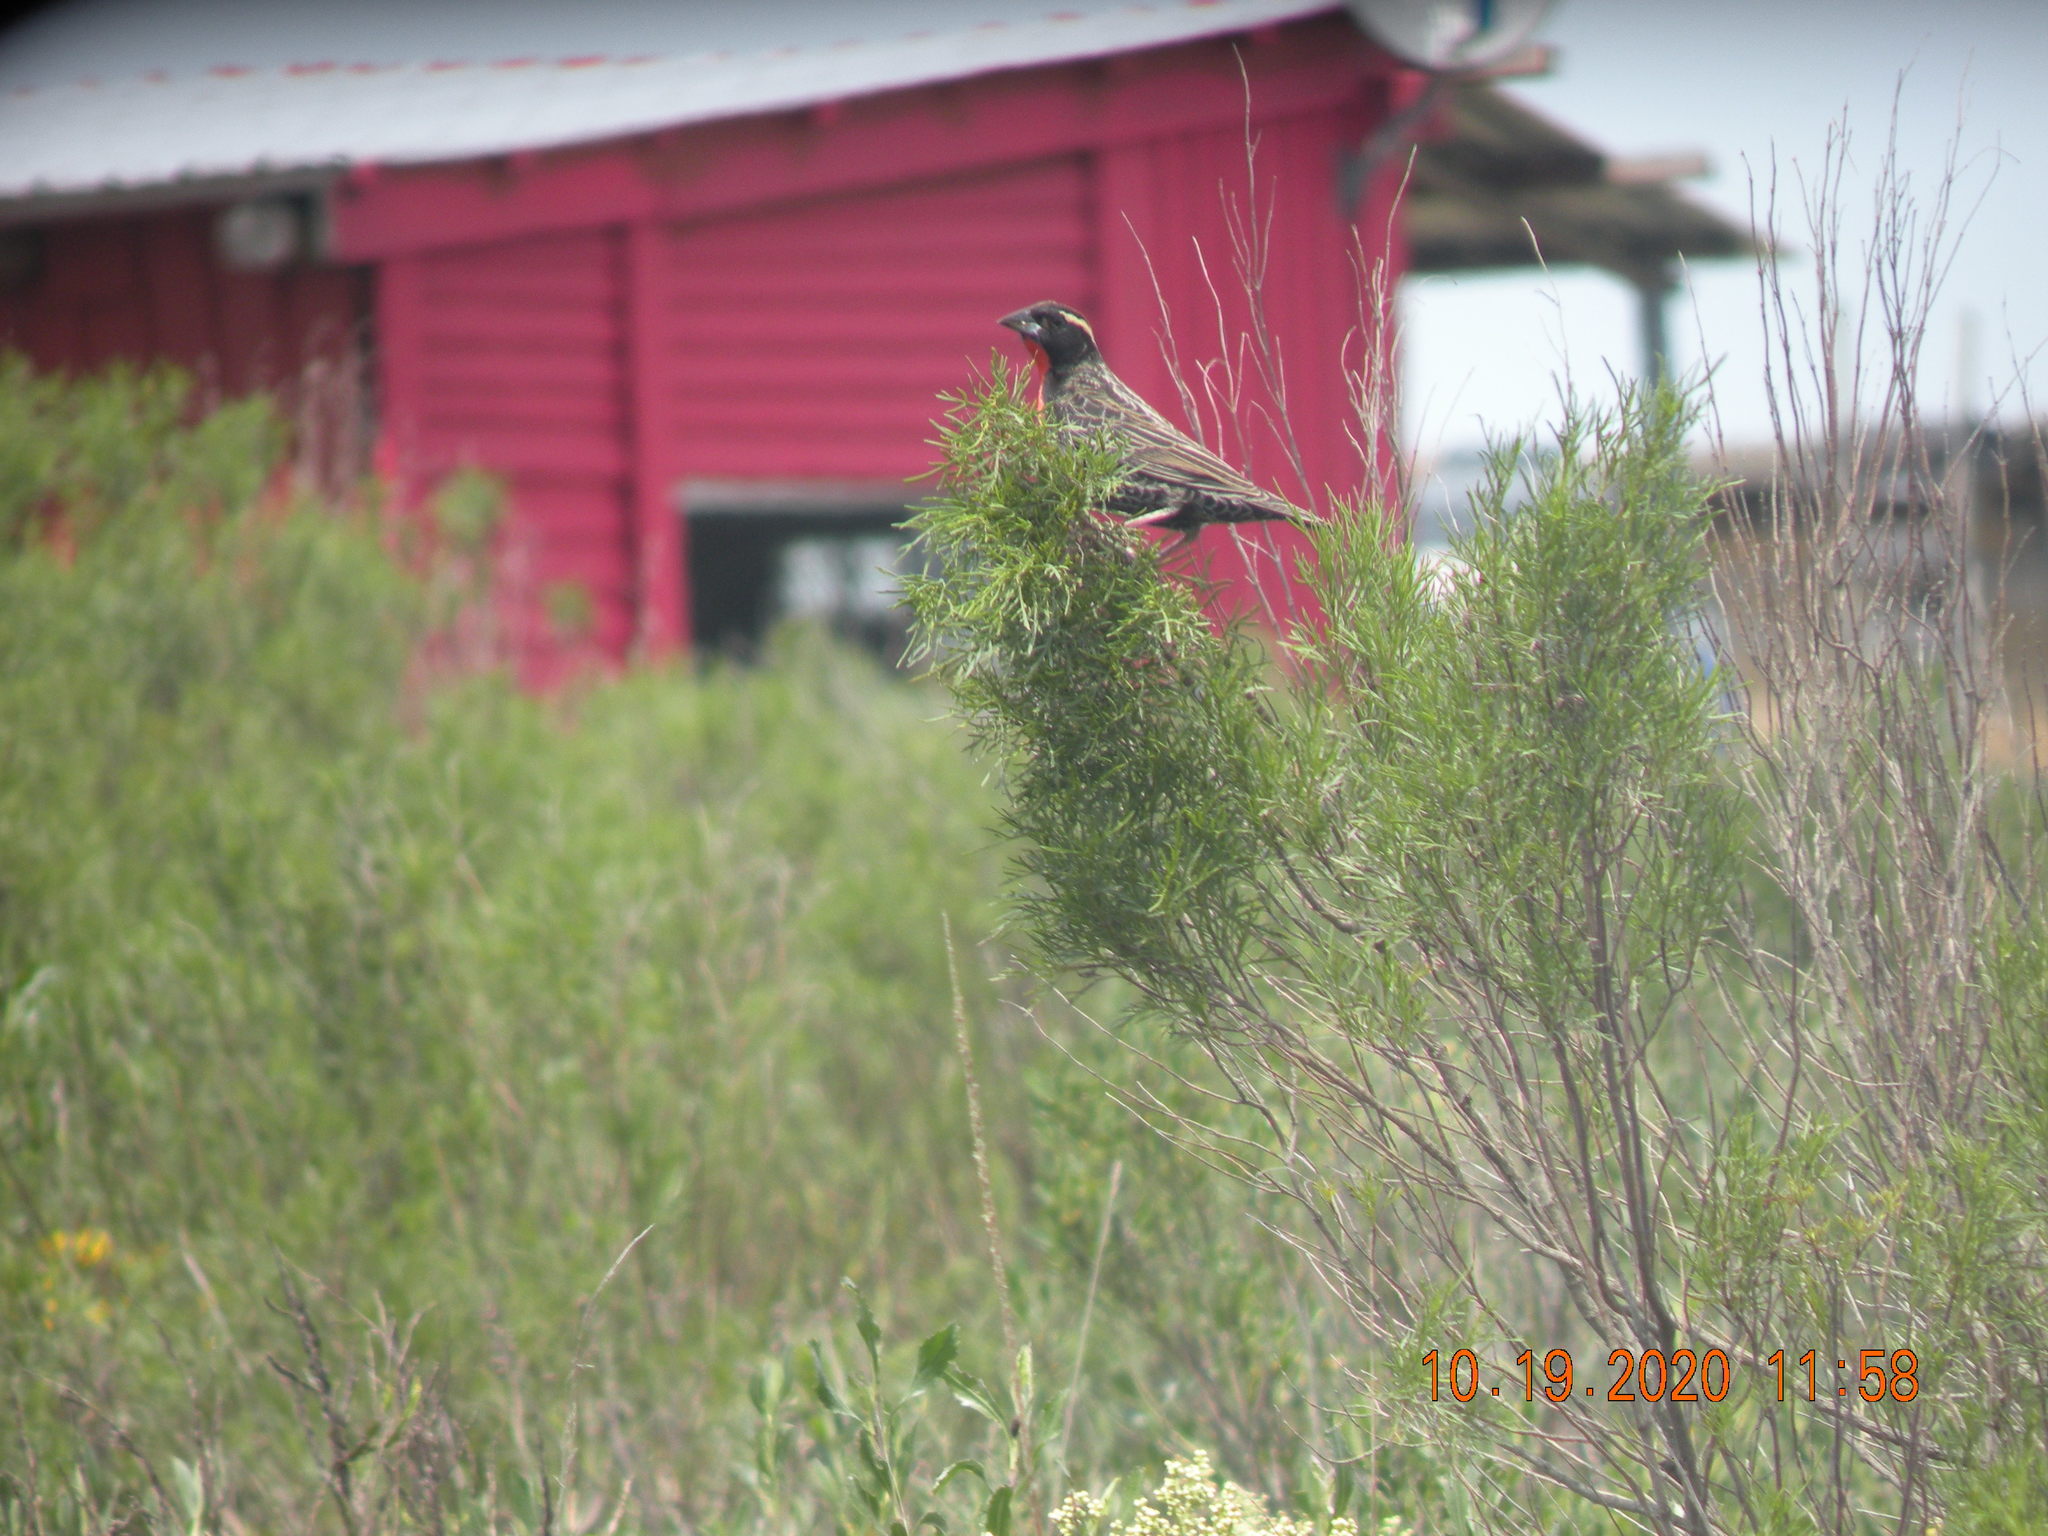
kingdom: Animalia
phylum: Chordata
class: Aves
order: Passeriformes
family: Icteridae
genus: Sturnella
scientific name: Sturnella superciliaris
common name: White-browed blackbird
